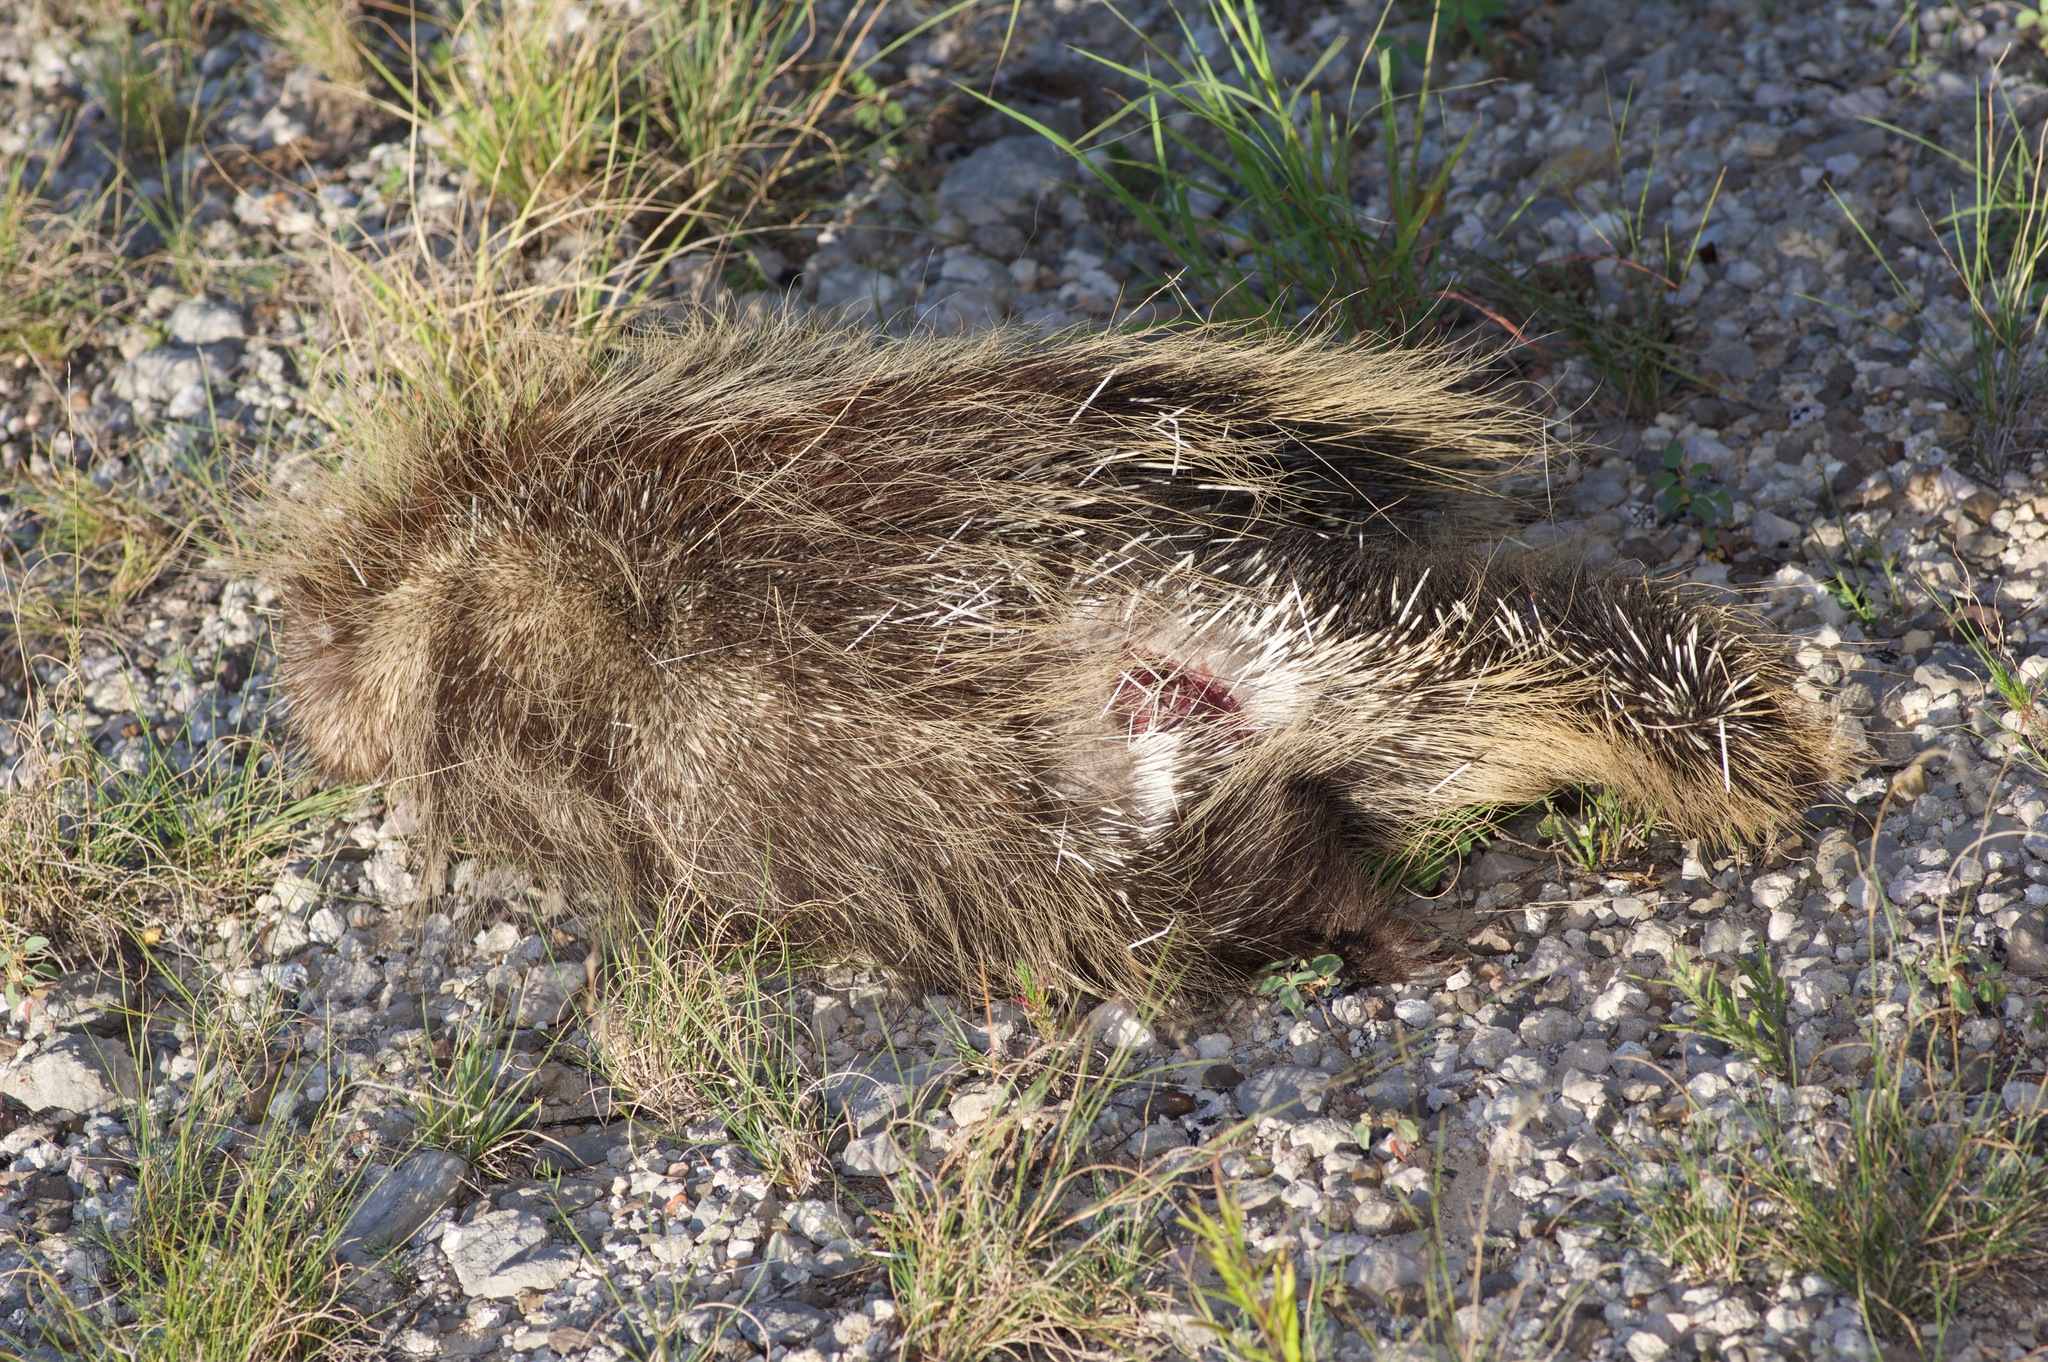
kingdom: Animalia
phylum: Chordata
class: Mammalia
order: Rodentia
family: Erethizontidae
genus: Erethizon
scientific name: Erethizon dorsatus
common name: North american porcupine
